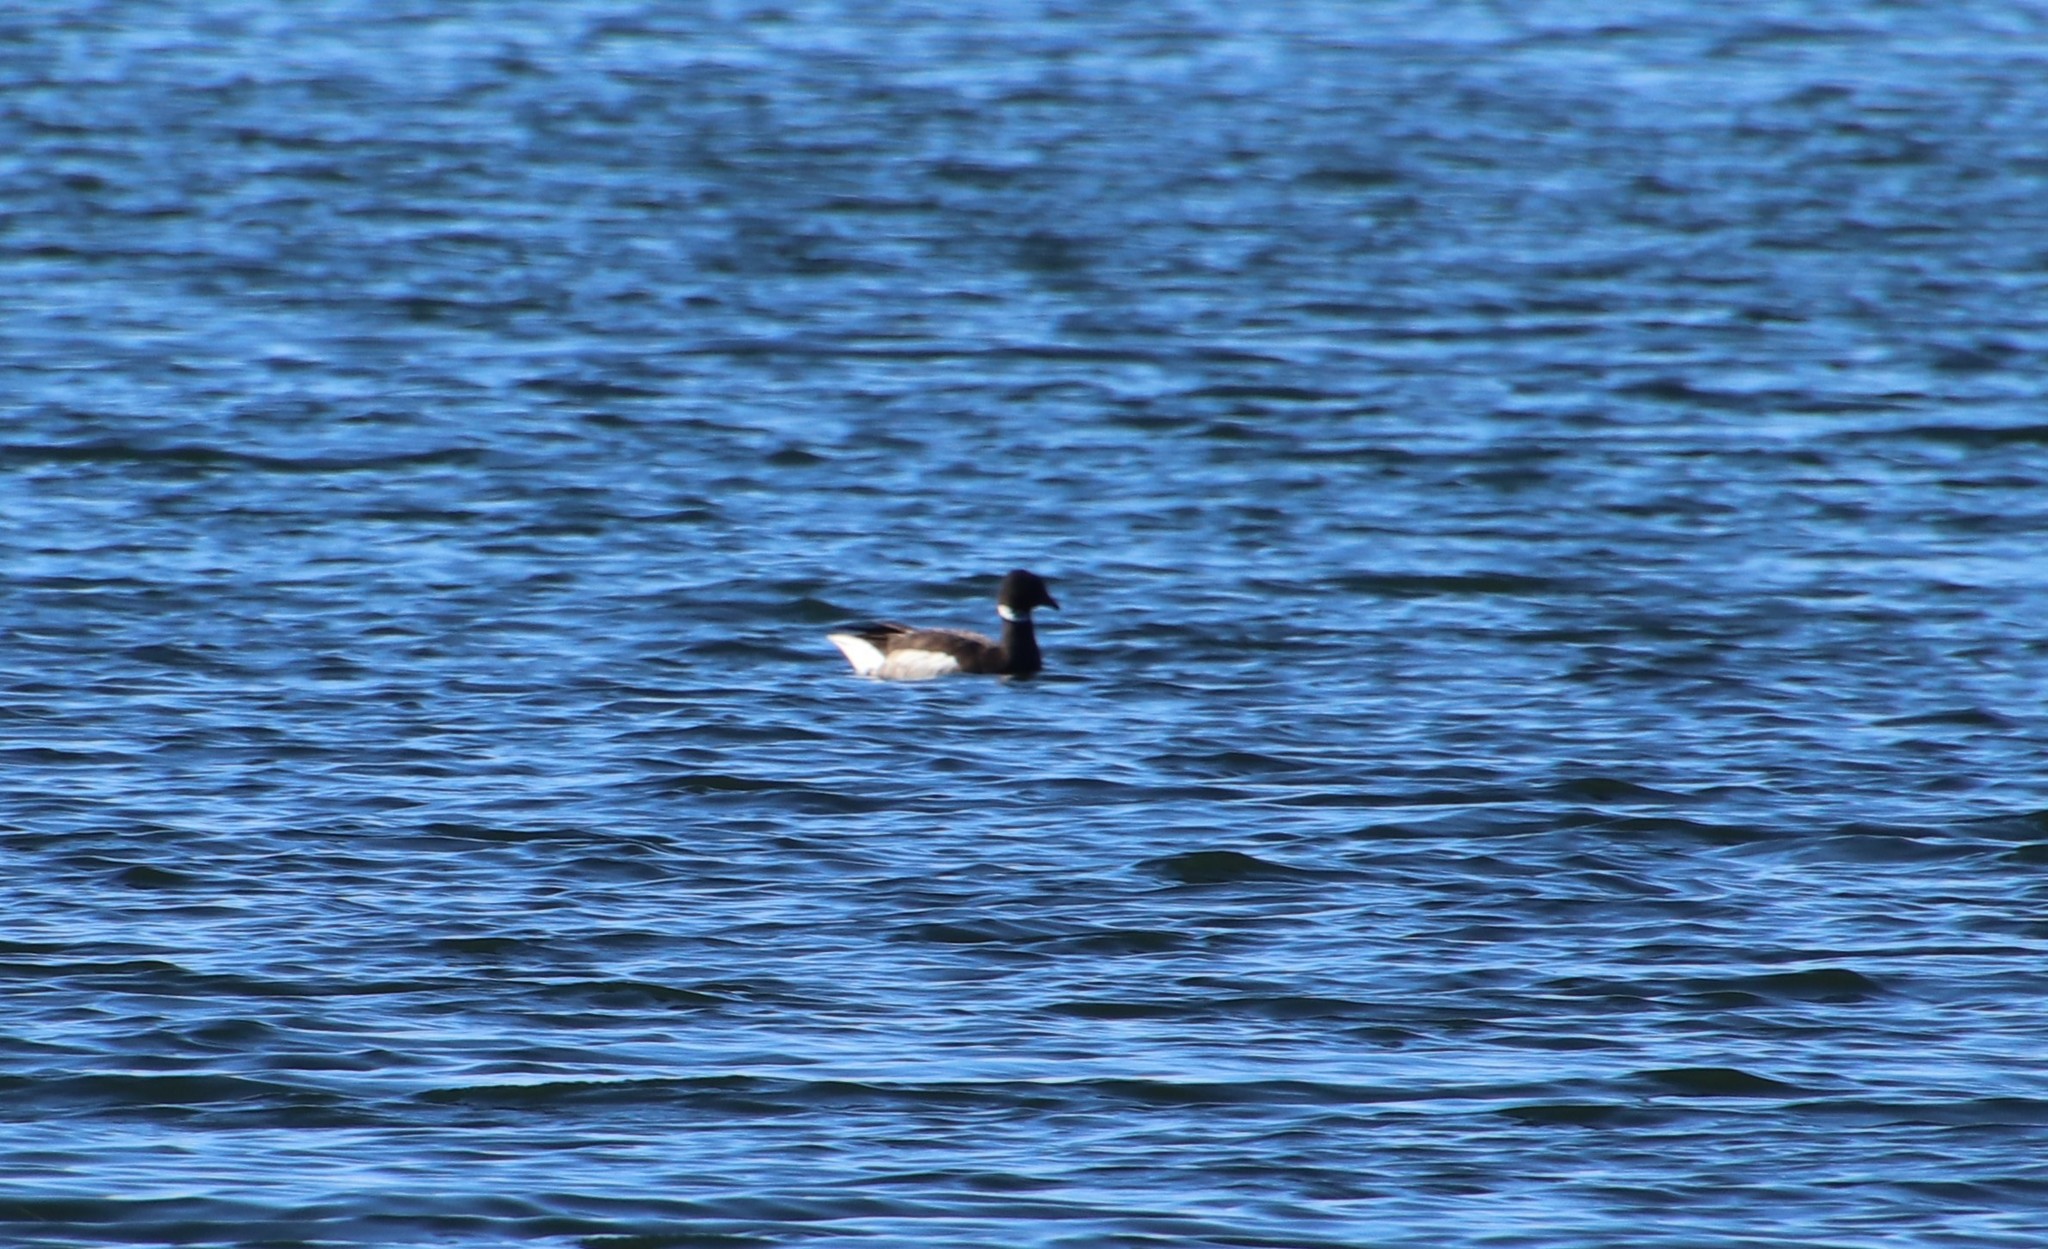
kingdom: Animalia
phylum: Chordata
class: Aves
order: Anseriformes
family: Anatidae
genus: Branta
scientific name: Branta bernicla
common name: Brant goose
